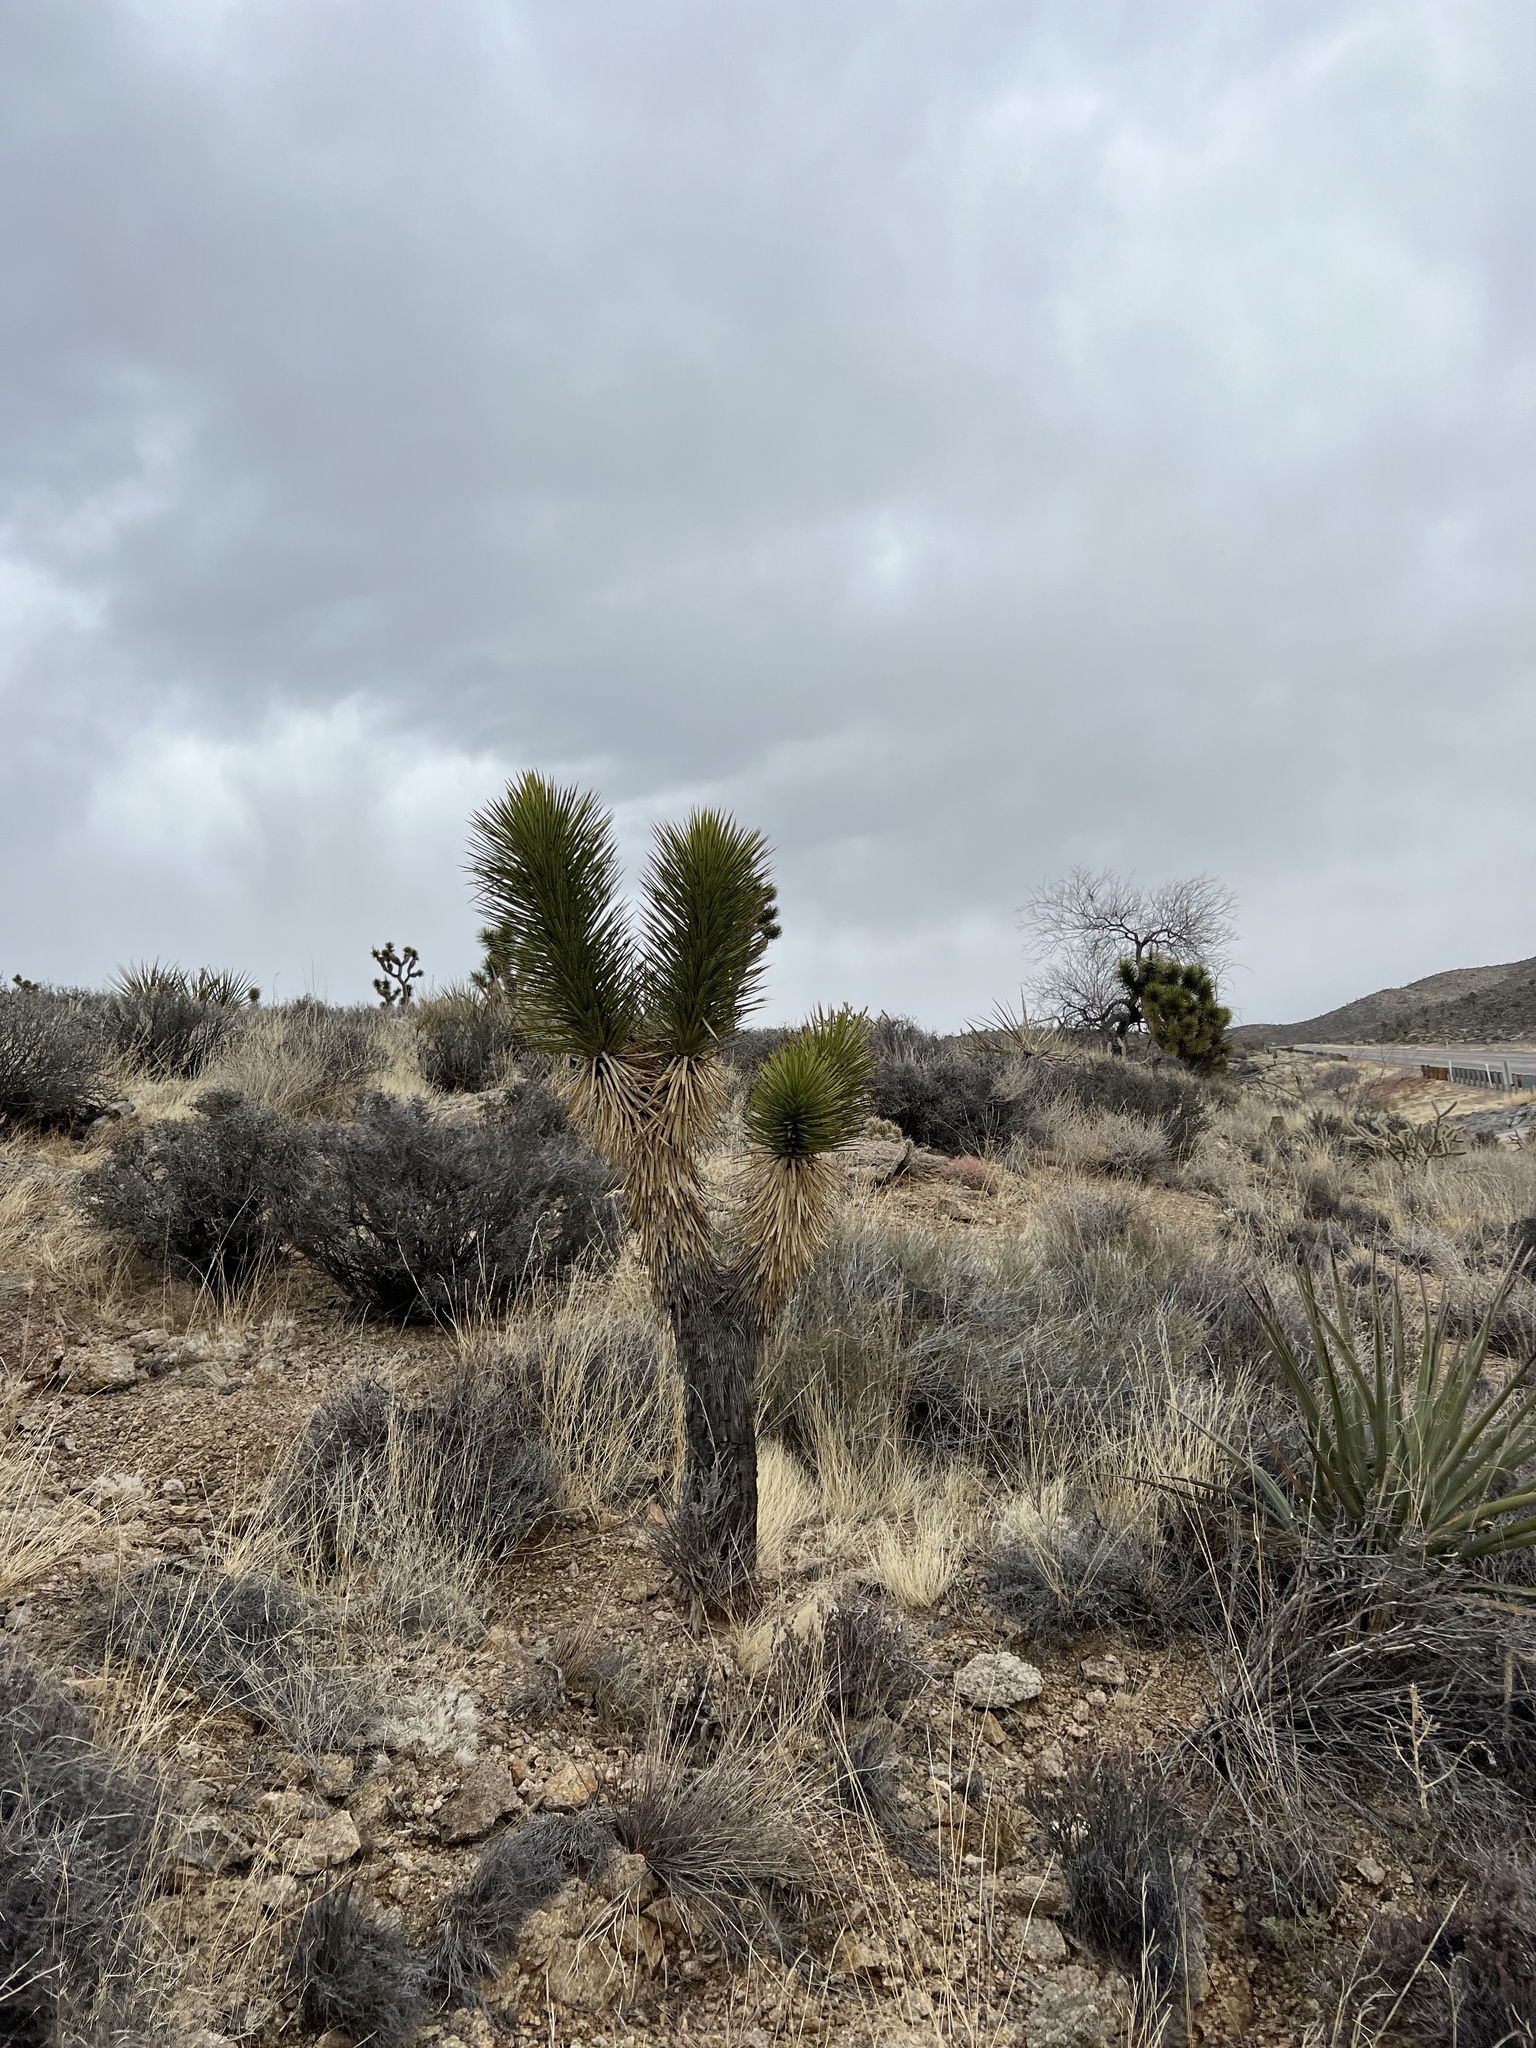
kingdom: Plantae
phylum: Tracheophyta
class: Liliopsida
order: Asparagales
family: Asparagaceae
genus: Yucca
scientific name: Yucca brevifolia
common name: Joshua tree
